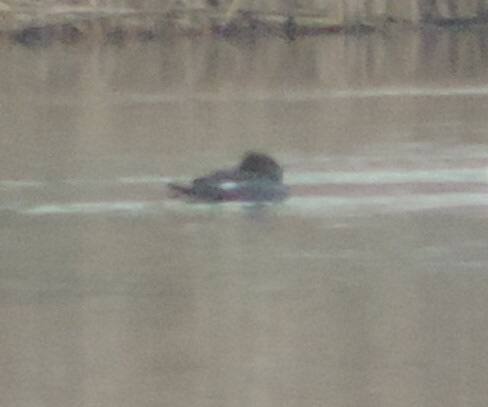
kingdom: Animalia
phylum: Chordata
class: Aves
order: Anseriformes
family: Anatidae
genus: Lophodytes
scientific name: Lophodytes cucullatus
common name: Hooded merganser
